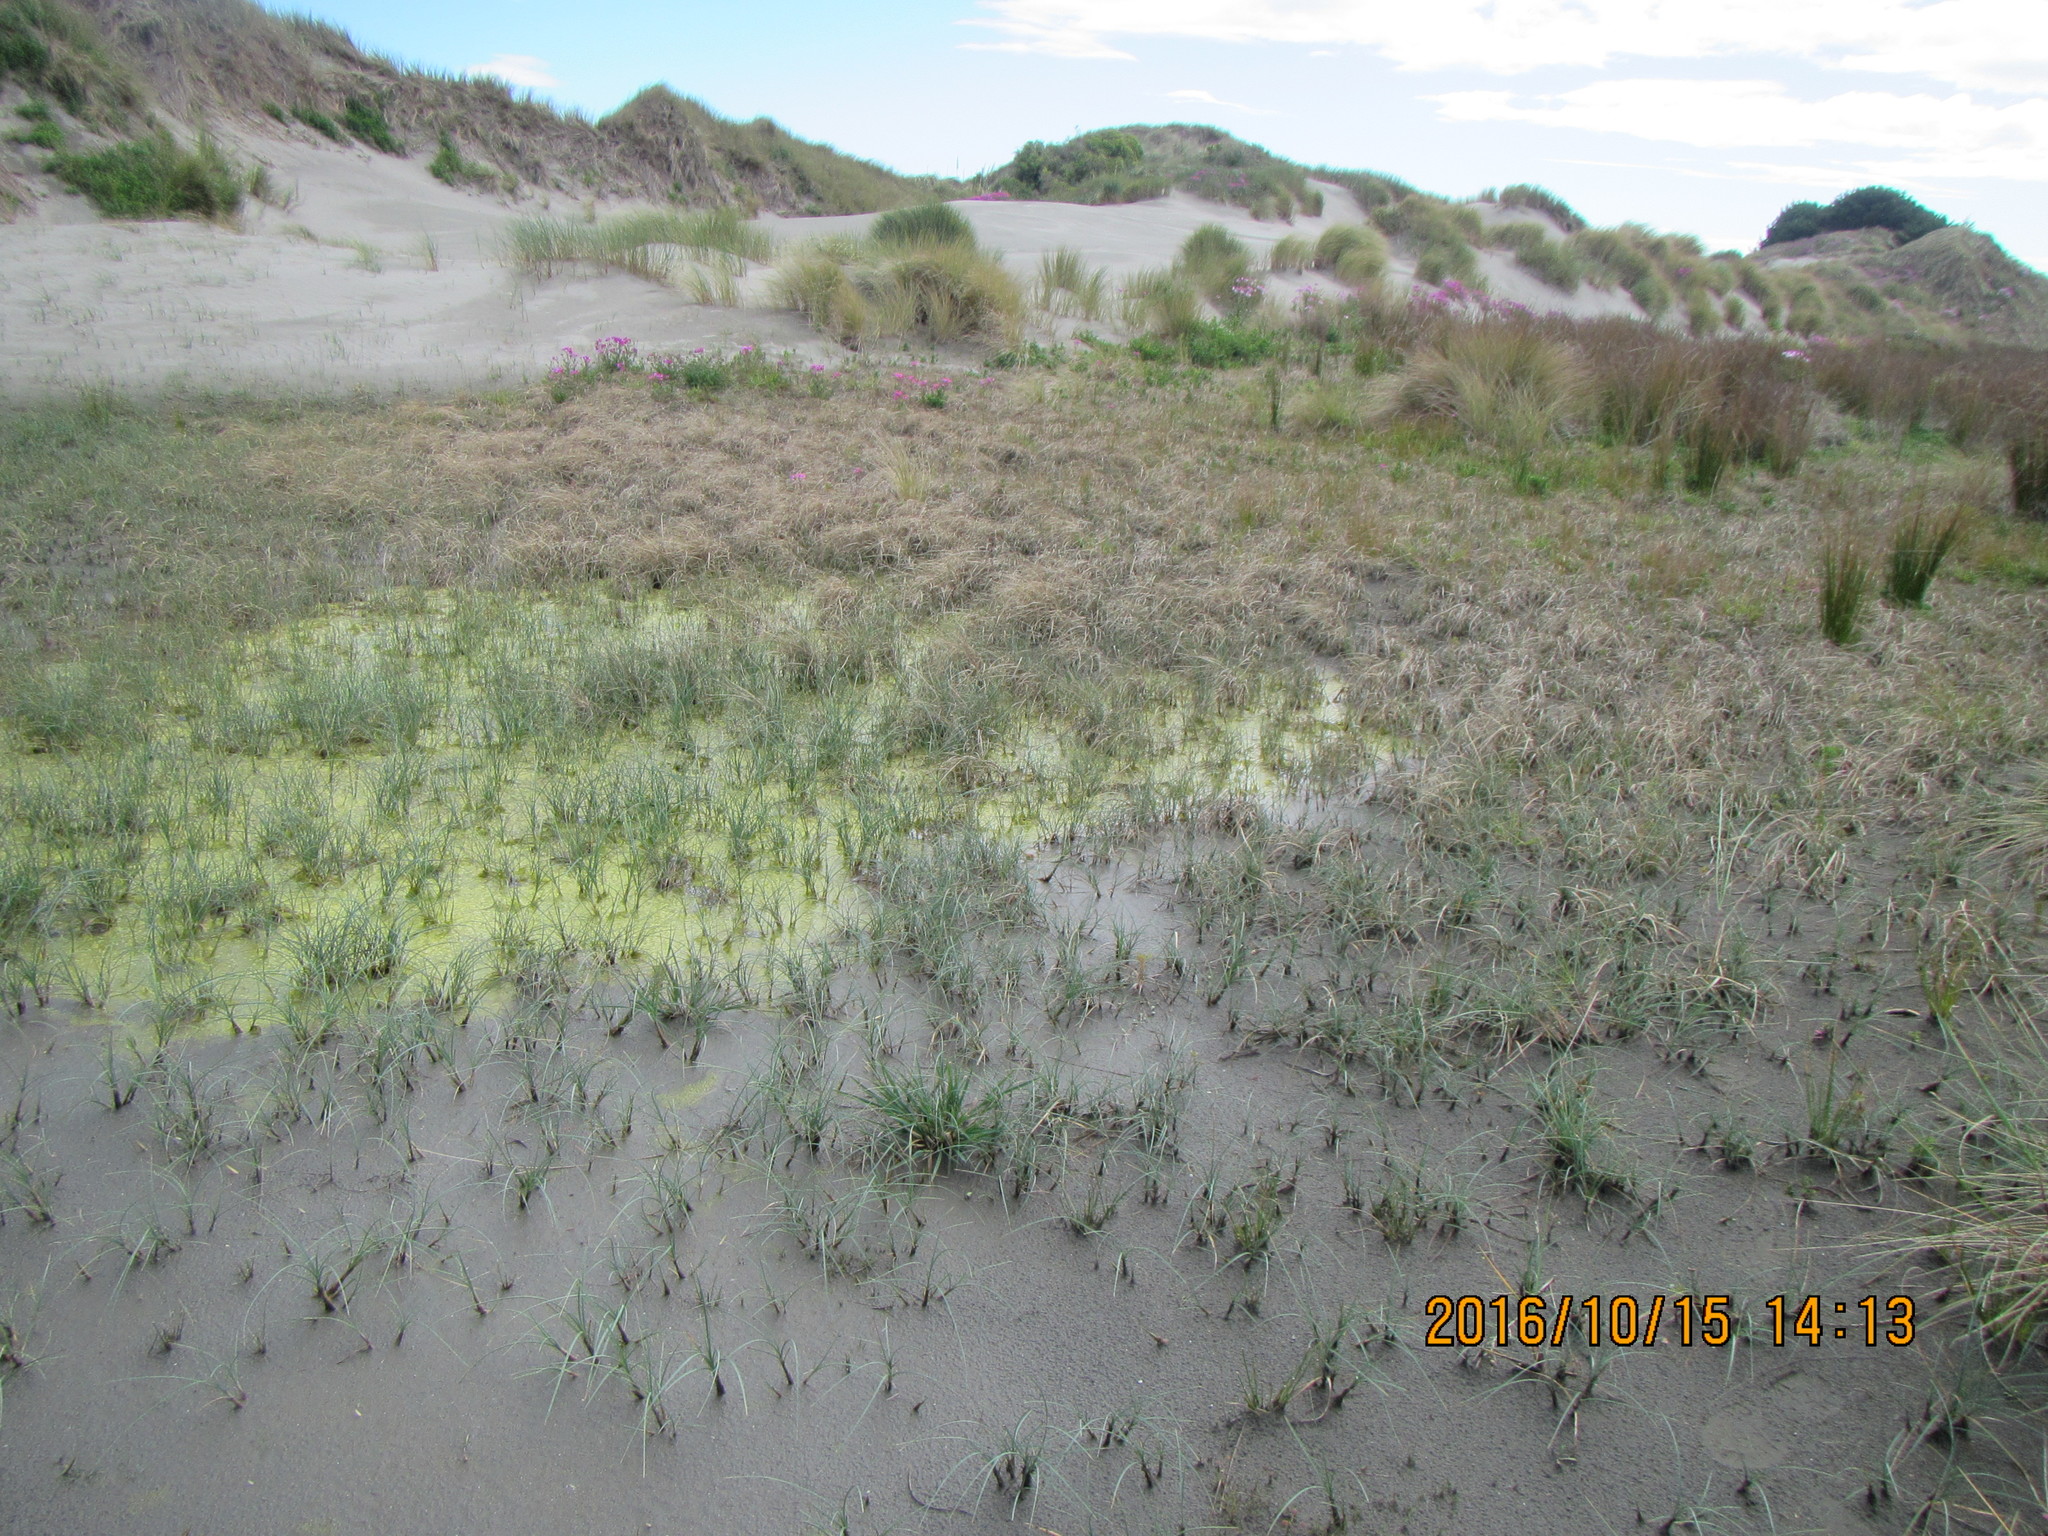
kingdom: Plantae
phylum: Tracheophyta
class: Liliopsida
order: Poales
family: Cyperaceae
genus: Carex
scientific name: Carex pumila
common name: Dwarf sedge
